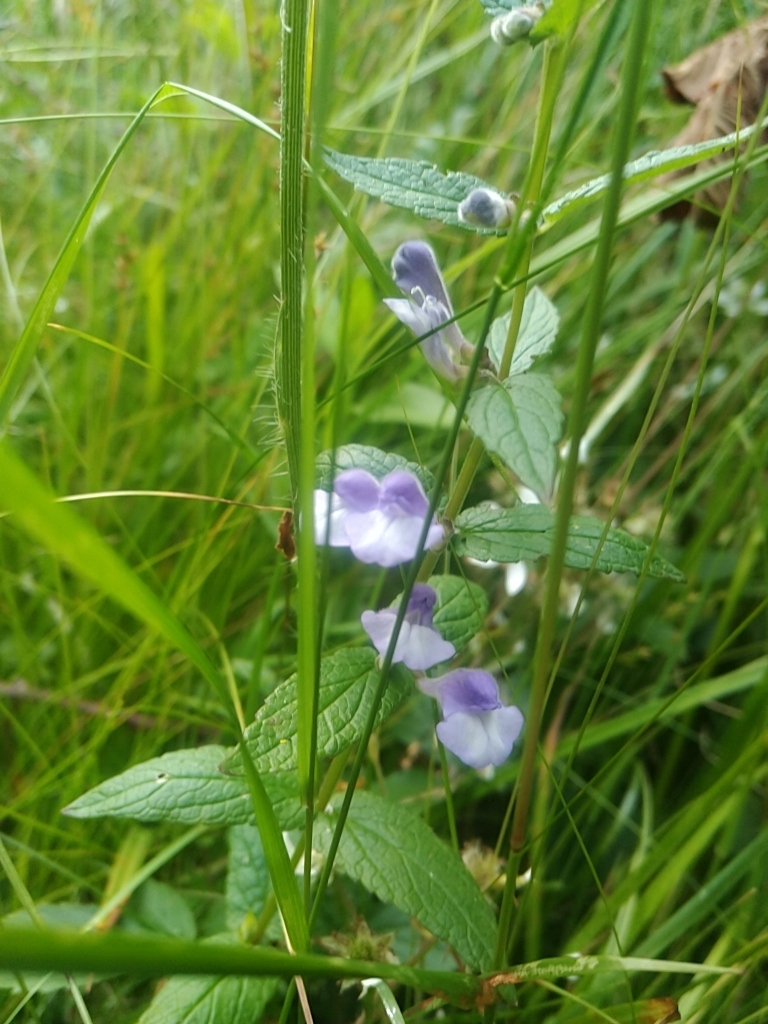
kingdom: Plantae
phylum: Tracheophyta
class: Magnoliopsida
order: Lamiales
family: Lamiaceae
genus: Scutellaria
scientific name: Scutellaria galericulata
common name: Skullcap
